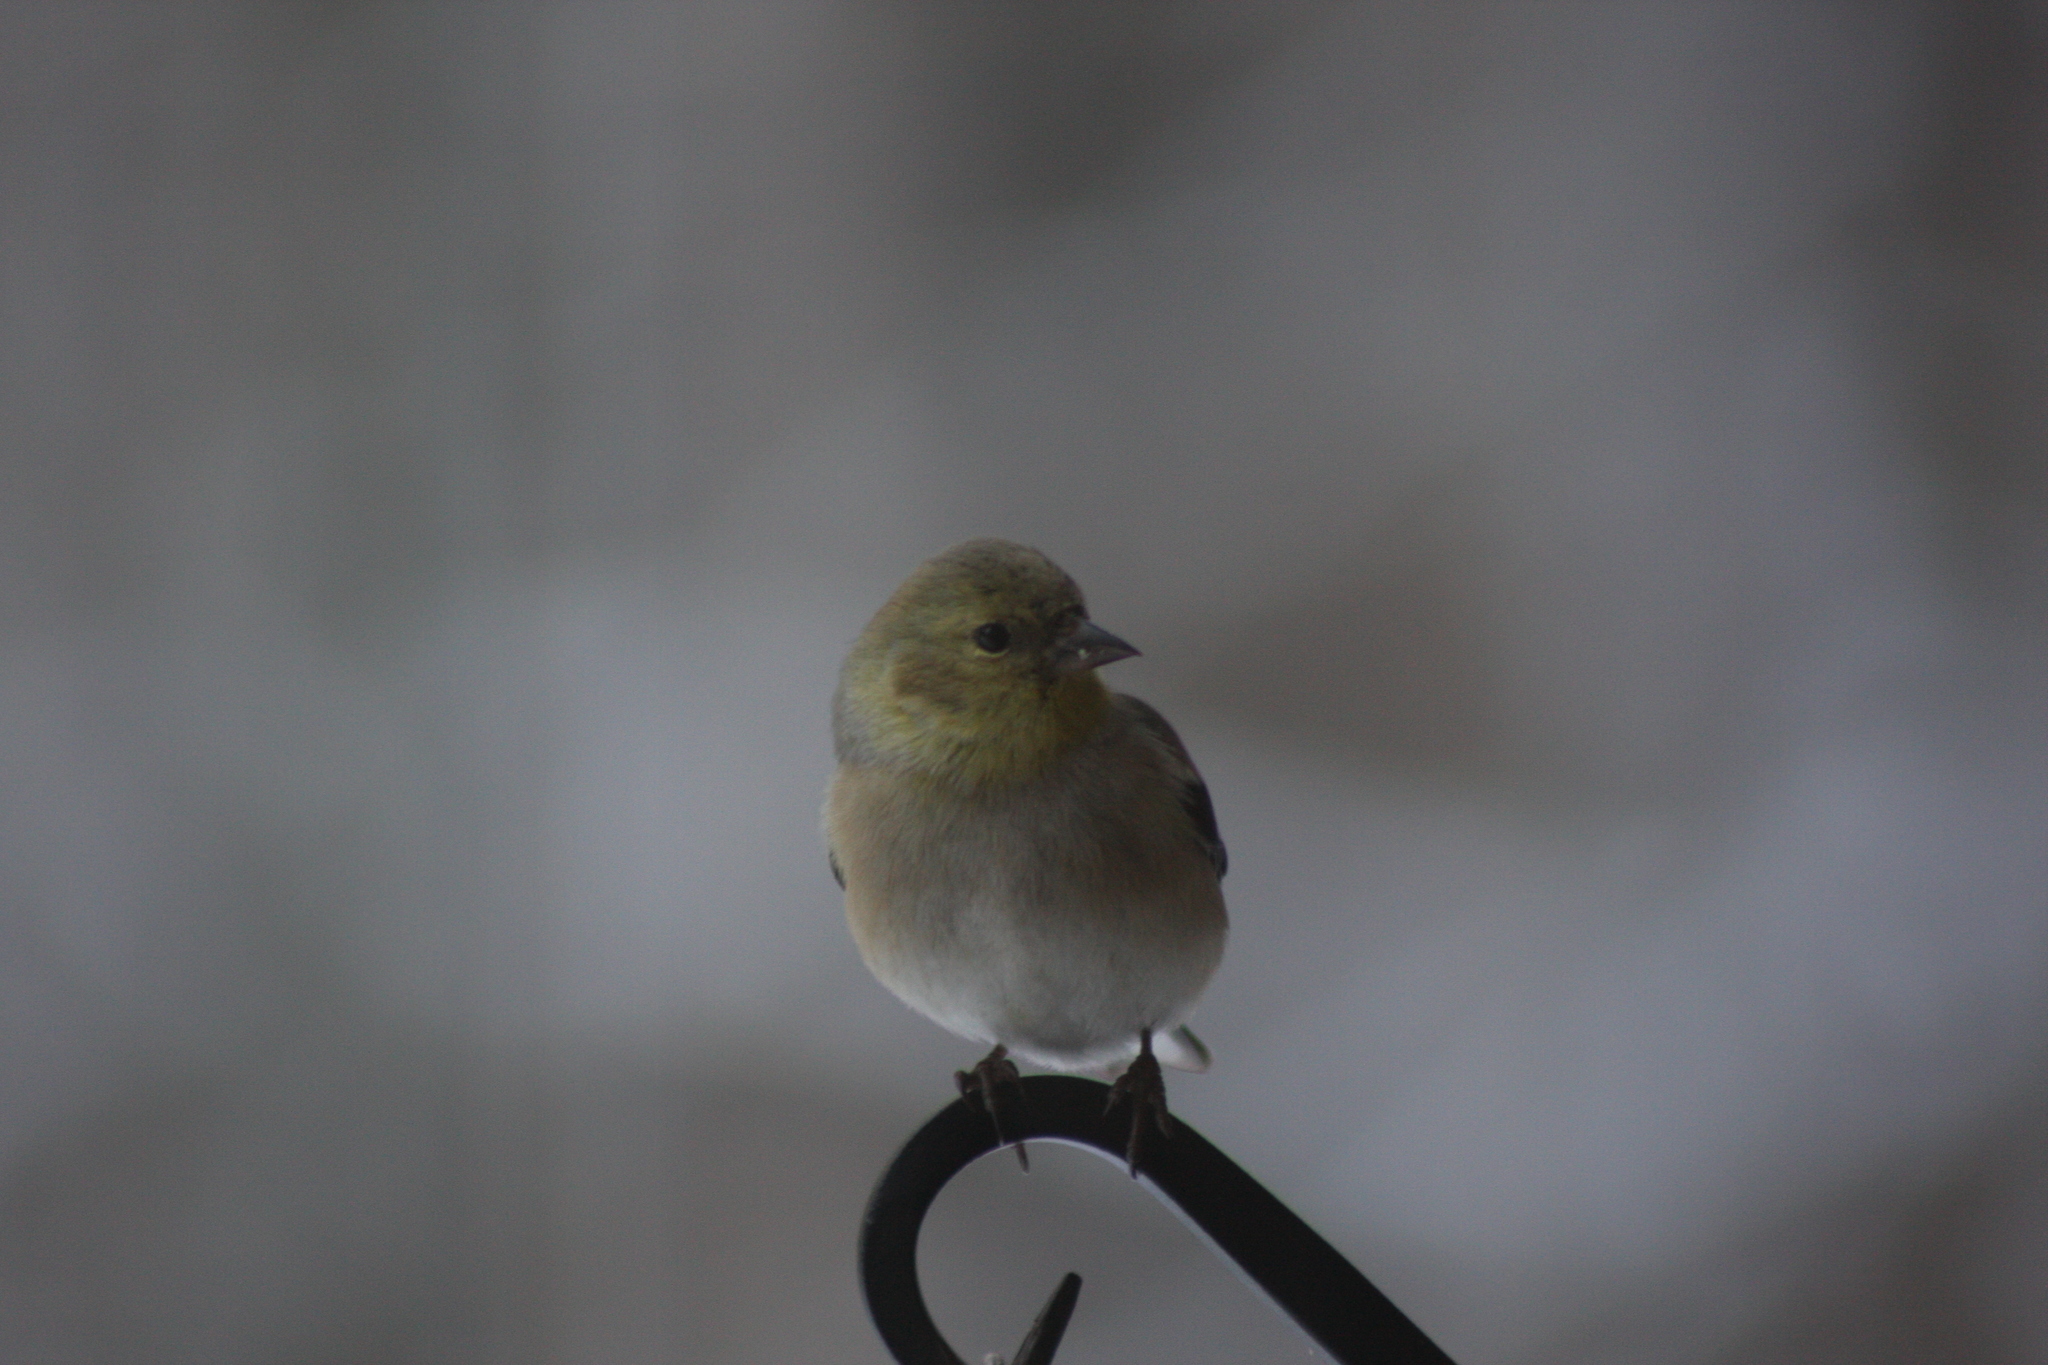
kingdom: Animalia
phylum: Chordata
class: Aves
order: Passeriformes
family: Fringillidae
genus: Spinus
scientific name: Spinus tristis
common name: American goldfinch
